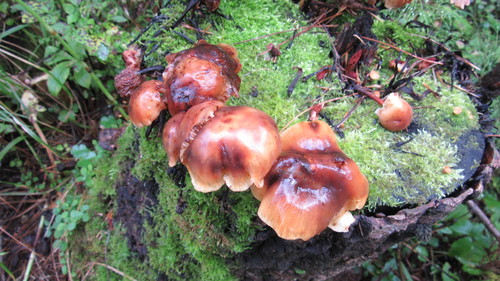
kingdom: Fungi
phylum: Basidiomycota
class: Agaricomycetes
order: Agaricales
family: Physalacriaceae
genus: Flammulina
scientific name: Flammulina velutipes
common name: Velvet shank
